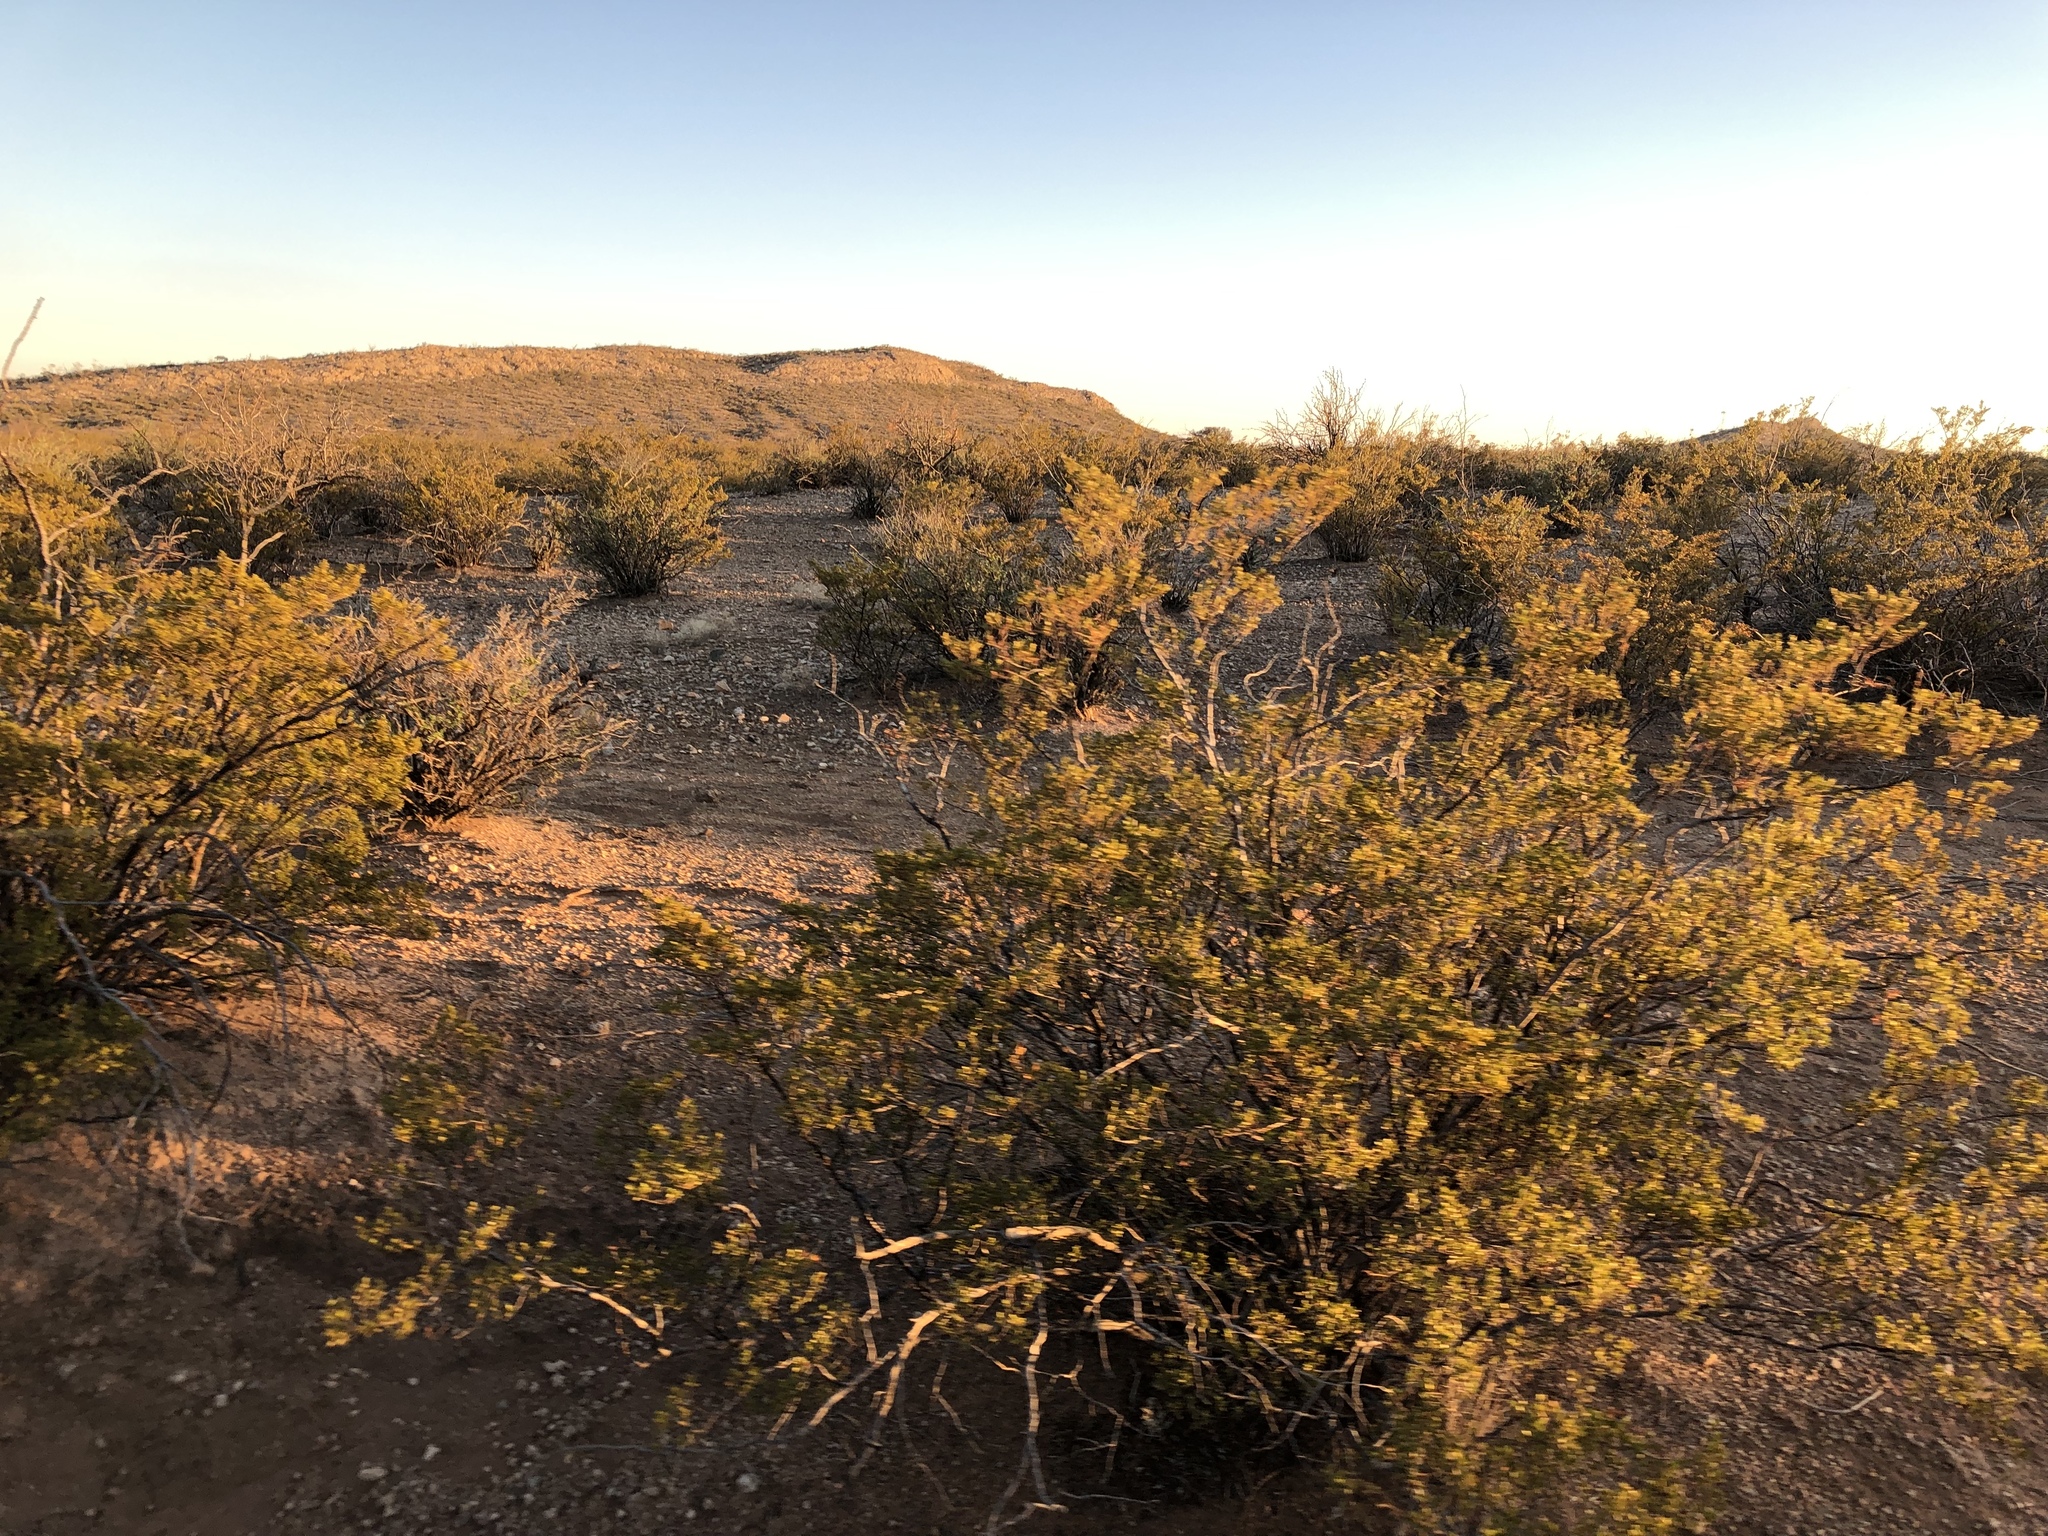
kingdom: Plantae
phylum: Tracheophyta
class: Magnoliopsida
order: Zygophyllales
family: Zygophyllaceae
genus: Larrea
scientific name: Larrea tridentata
